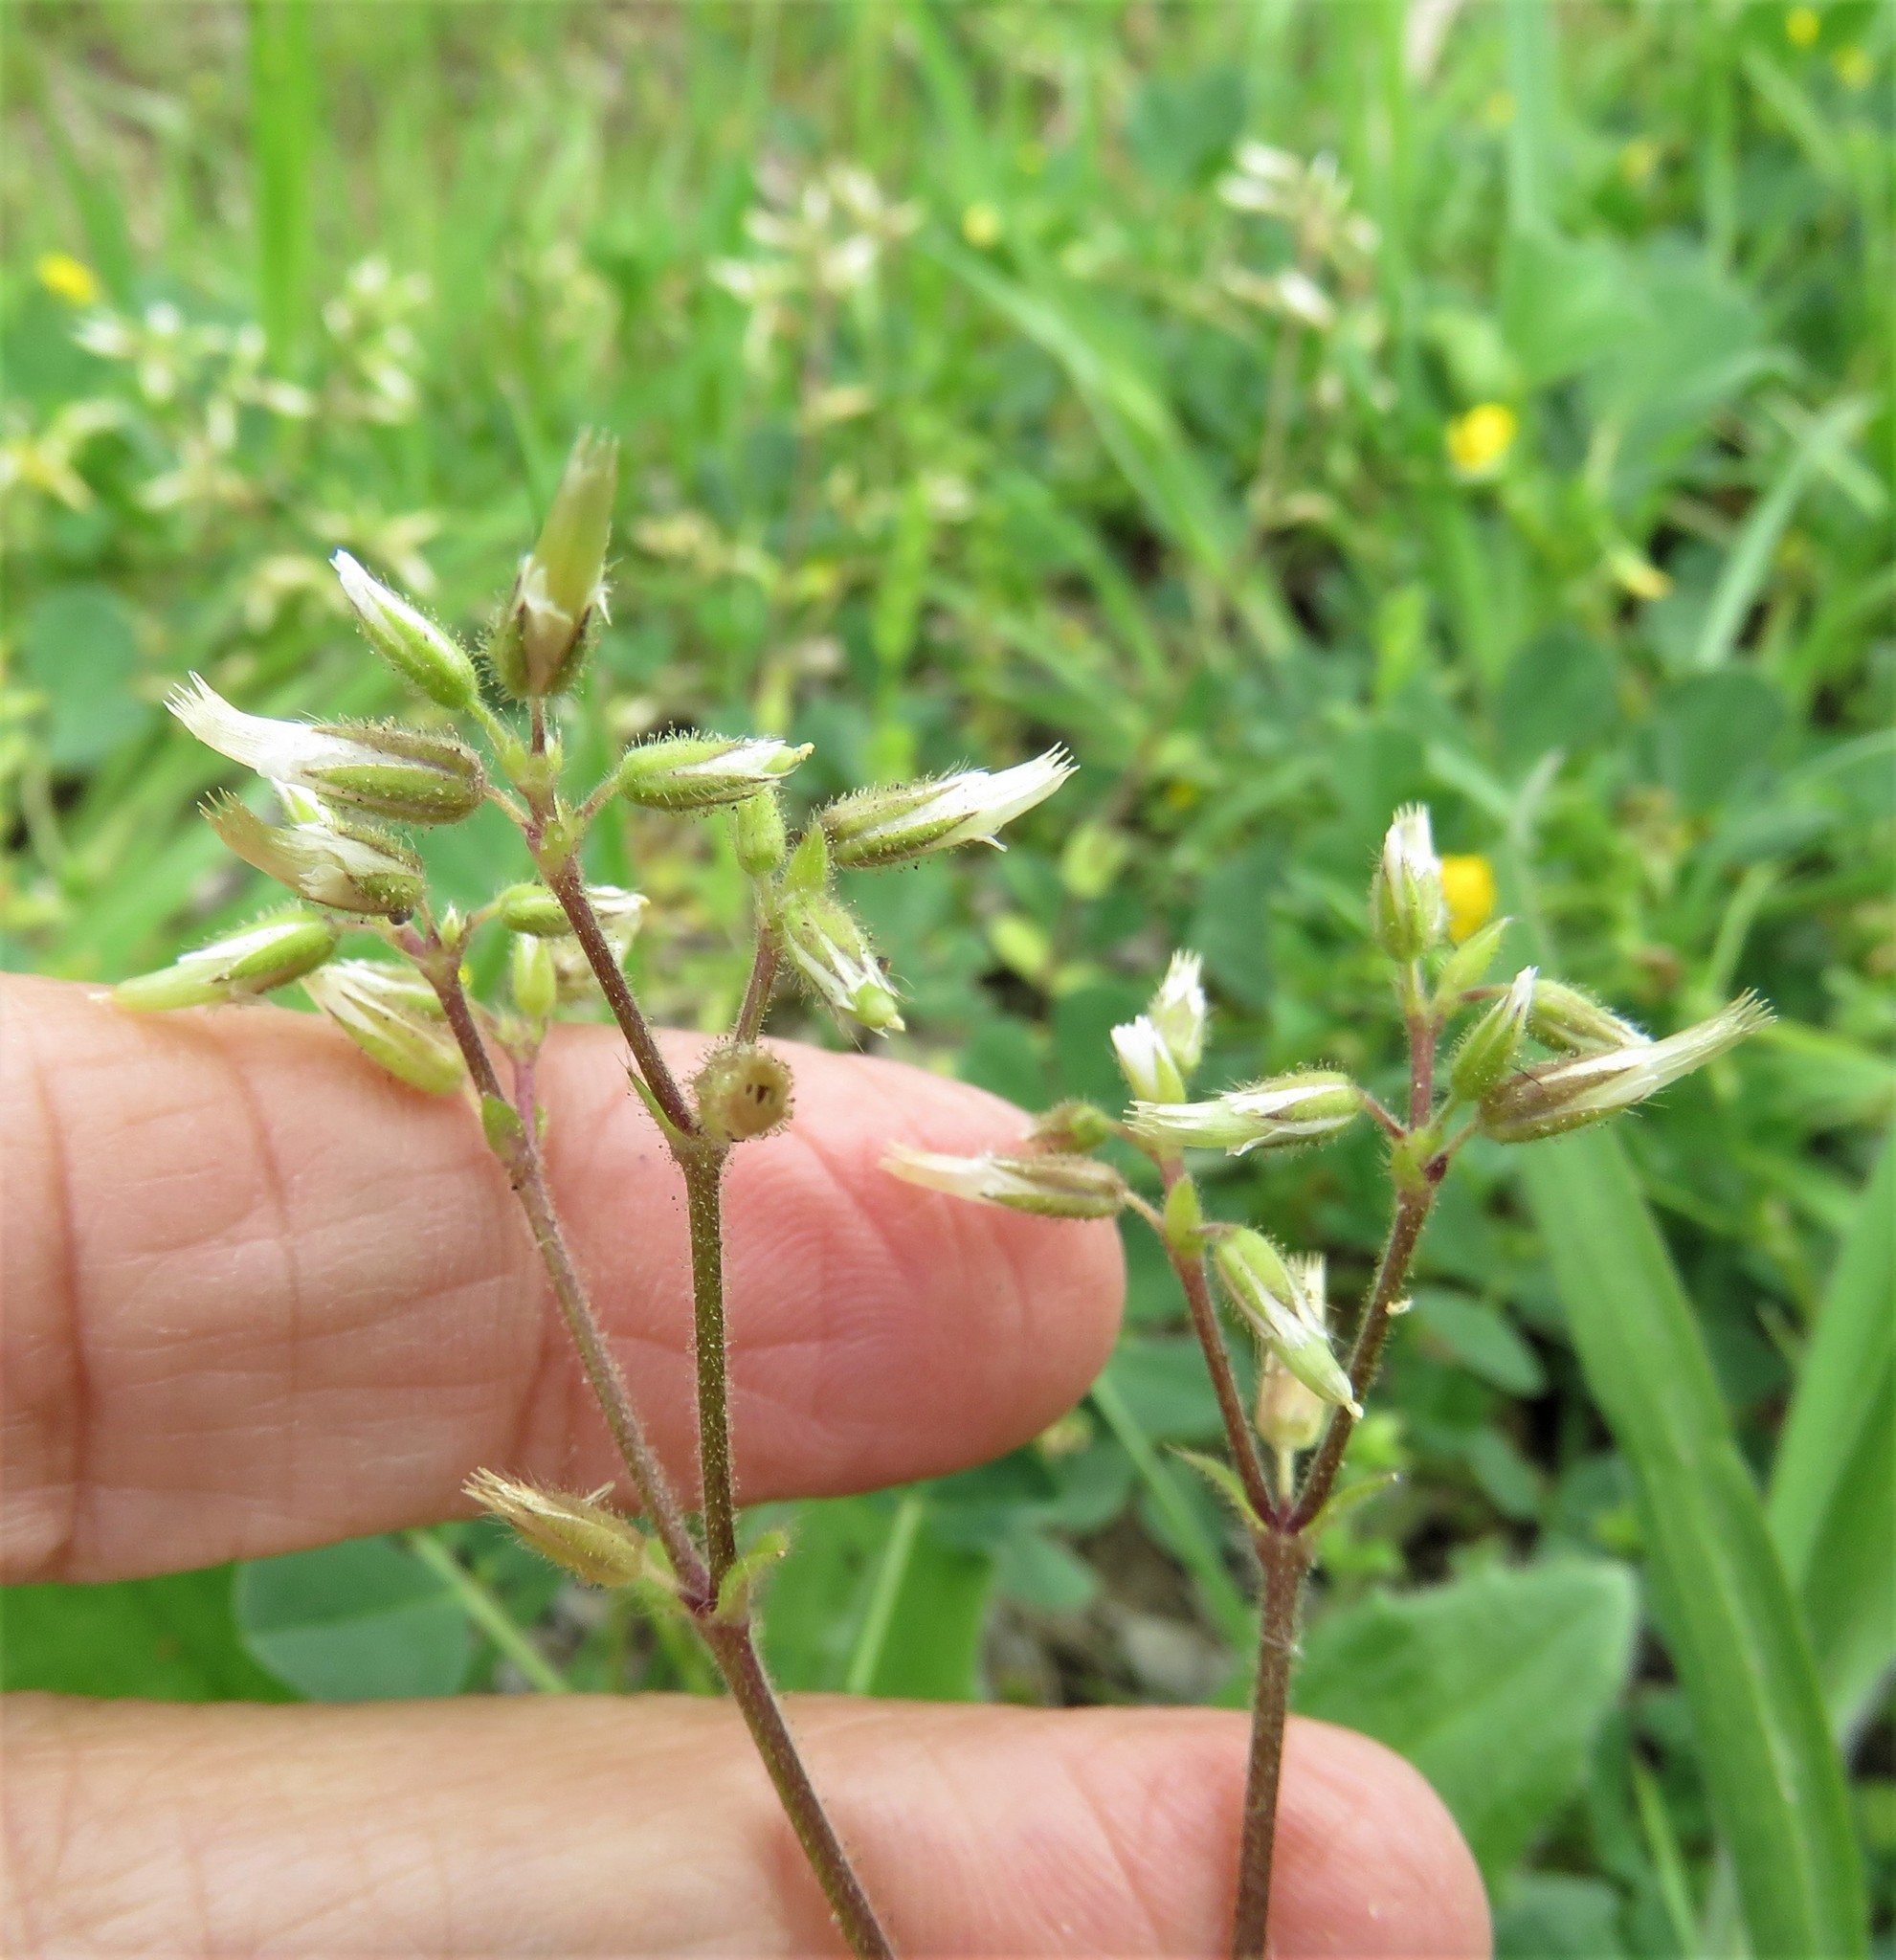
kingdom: Plantae
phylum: Tracheophyta
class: Magnoliopsida
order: Caryophyllales
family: Caryophyllaceae
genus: Cerastium
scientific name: Cerastium glomeratum
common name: Sticky chickweed
